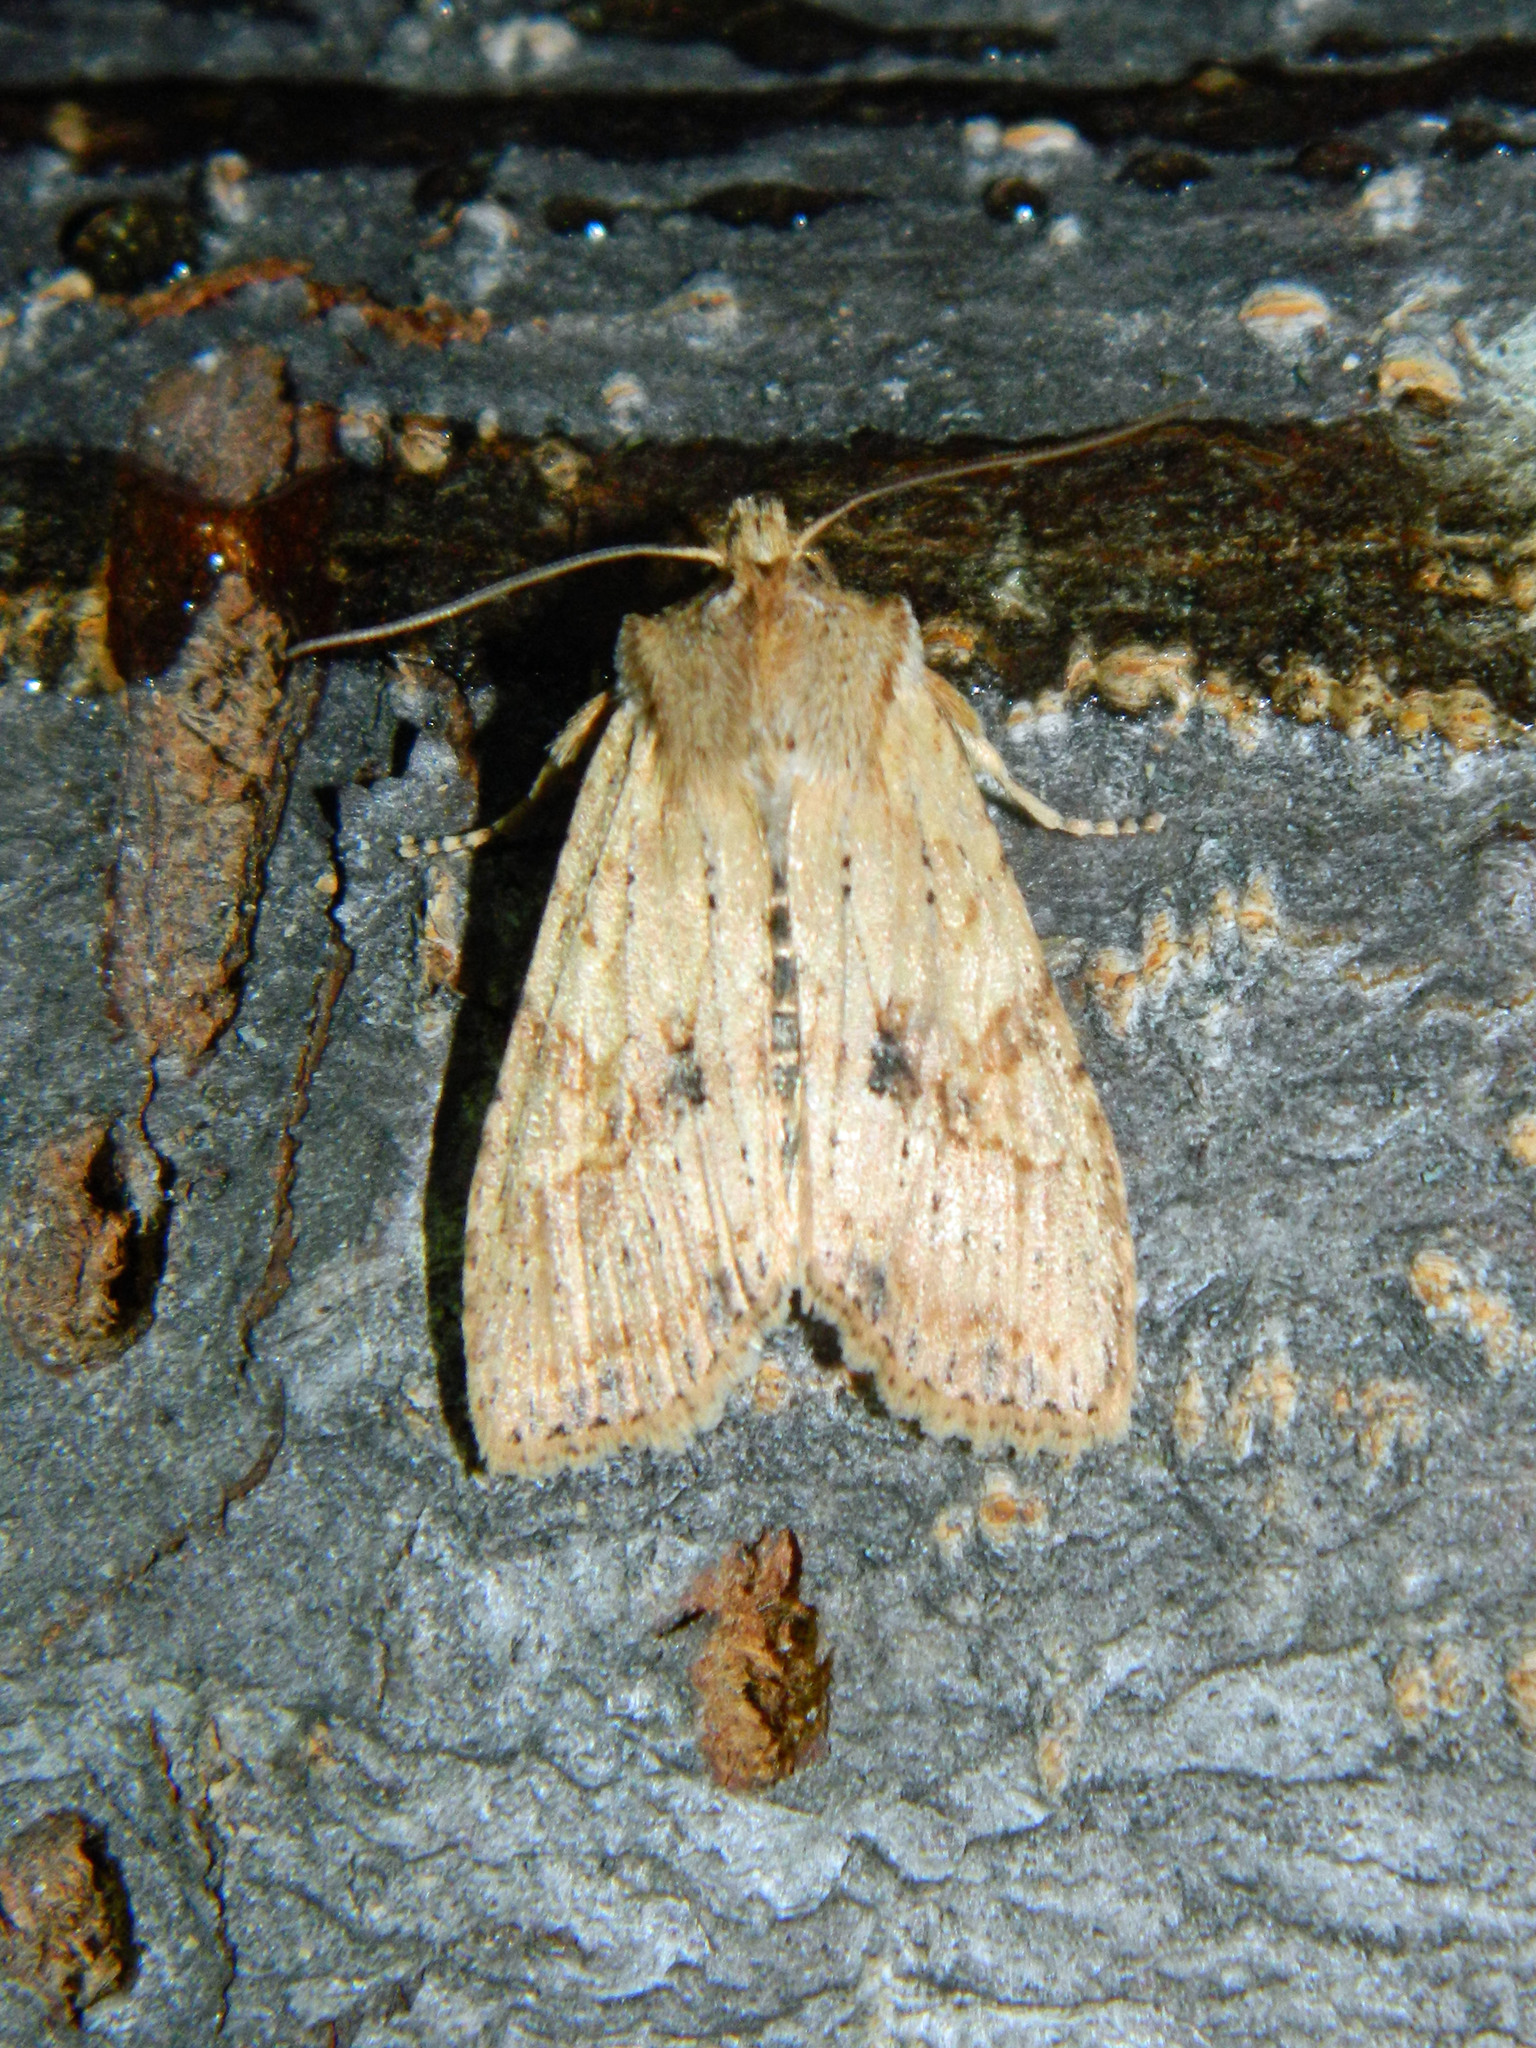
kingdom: Animalia
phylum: Arthropoda
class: Insecta
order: Lepidoptera
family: Noctuidae
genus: Lithophane
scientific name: Lithophane innominata
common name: Nameless pinion moth
